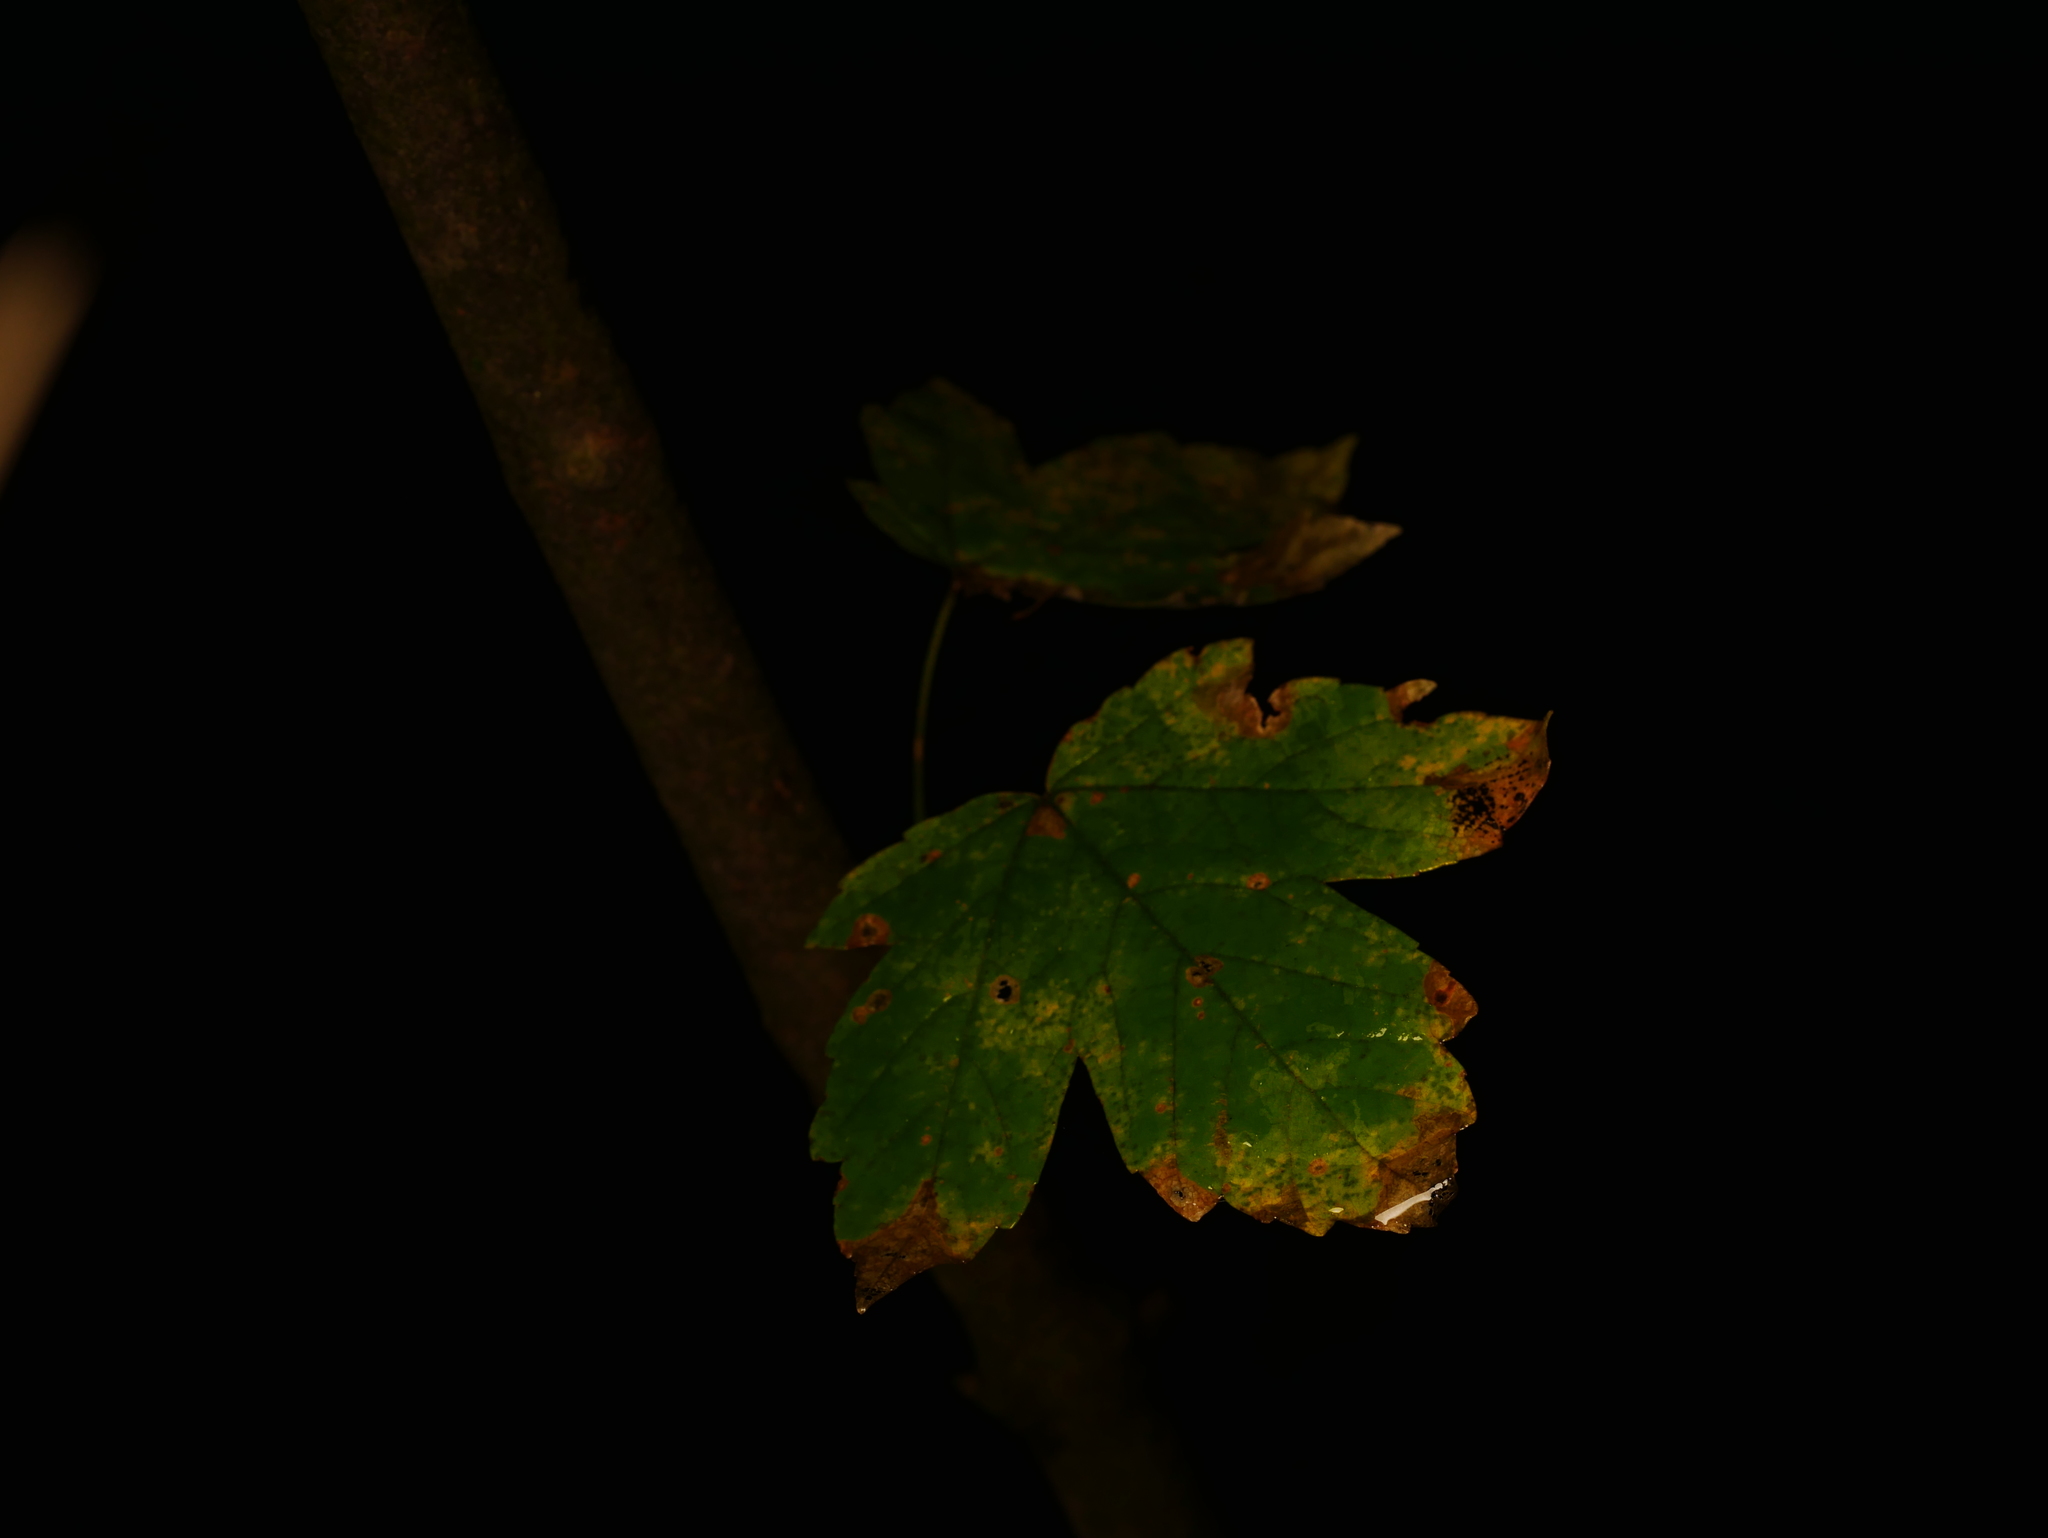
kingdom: Plantae
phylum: Tracheophyta
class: Magnoliopsida
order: Sapindales
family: Sapindaceae
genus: Acer
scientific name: Acer pseudoplatanus
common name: Sycamore
